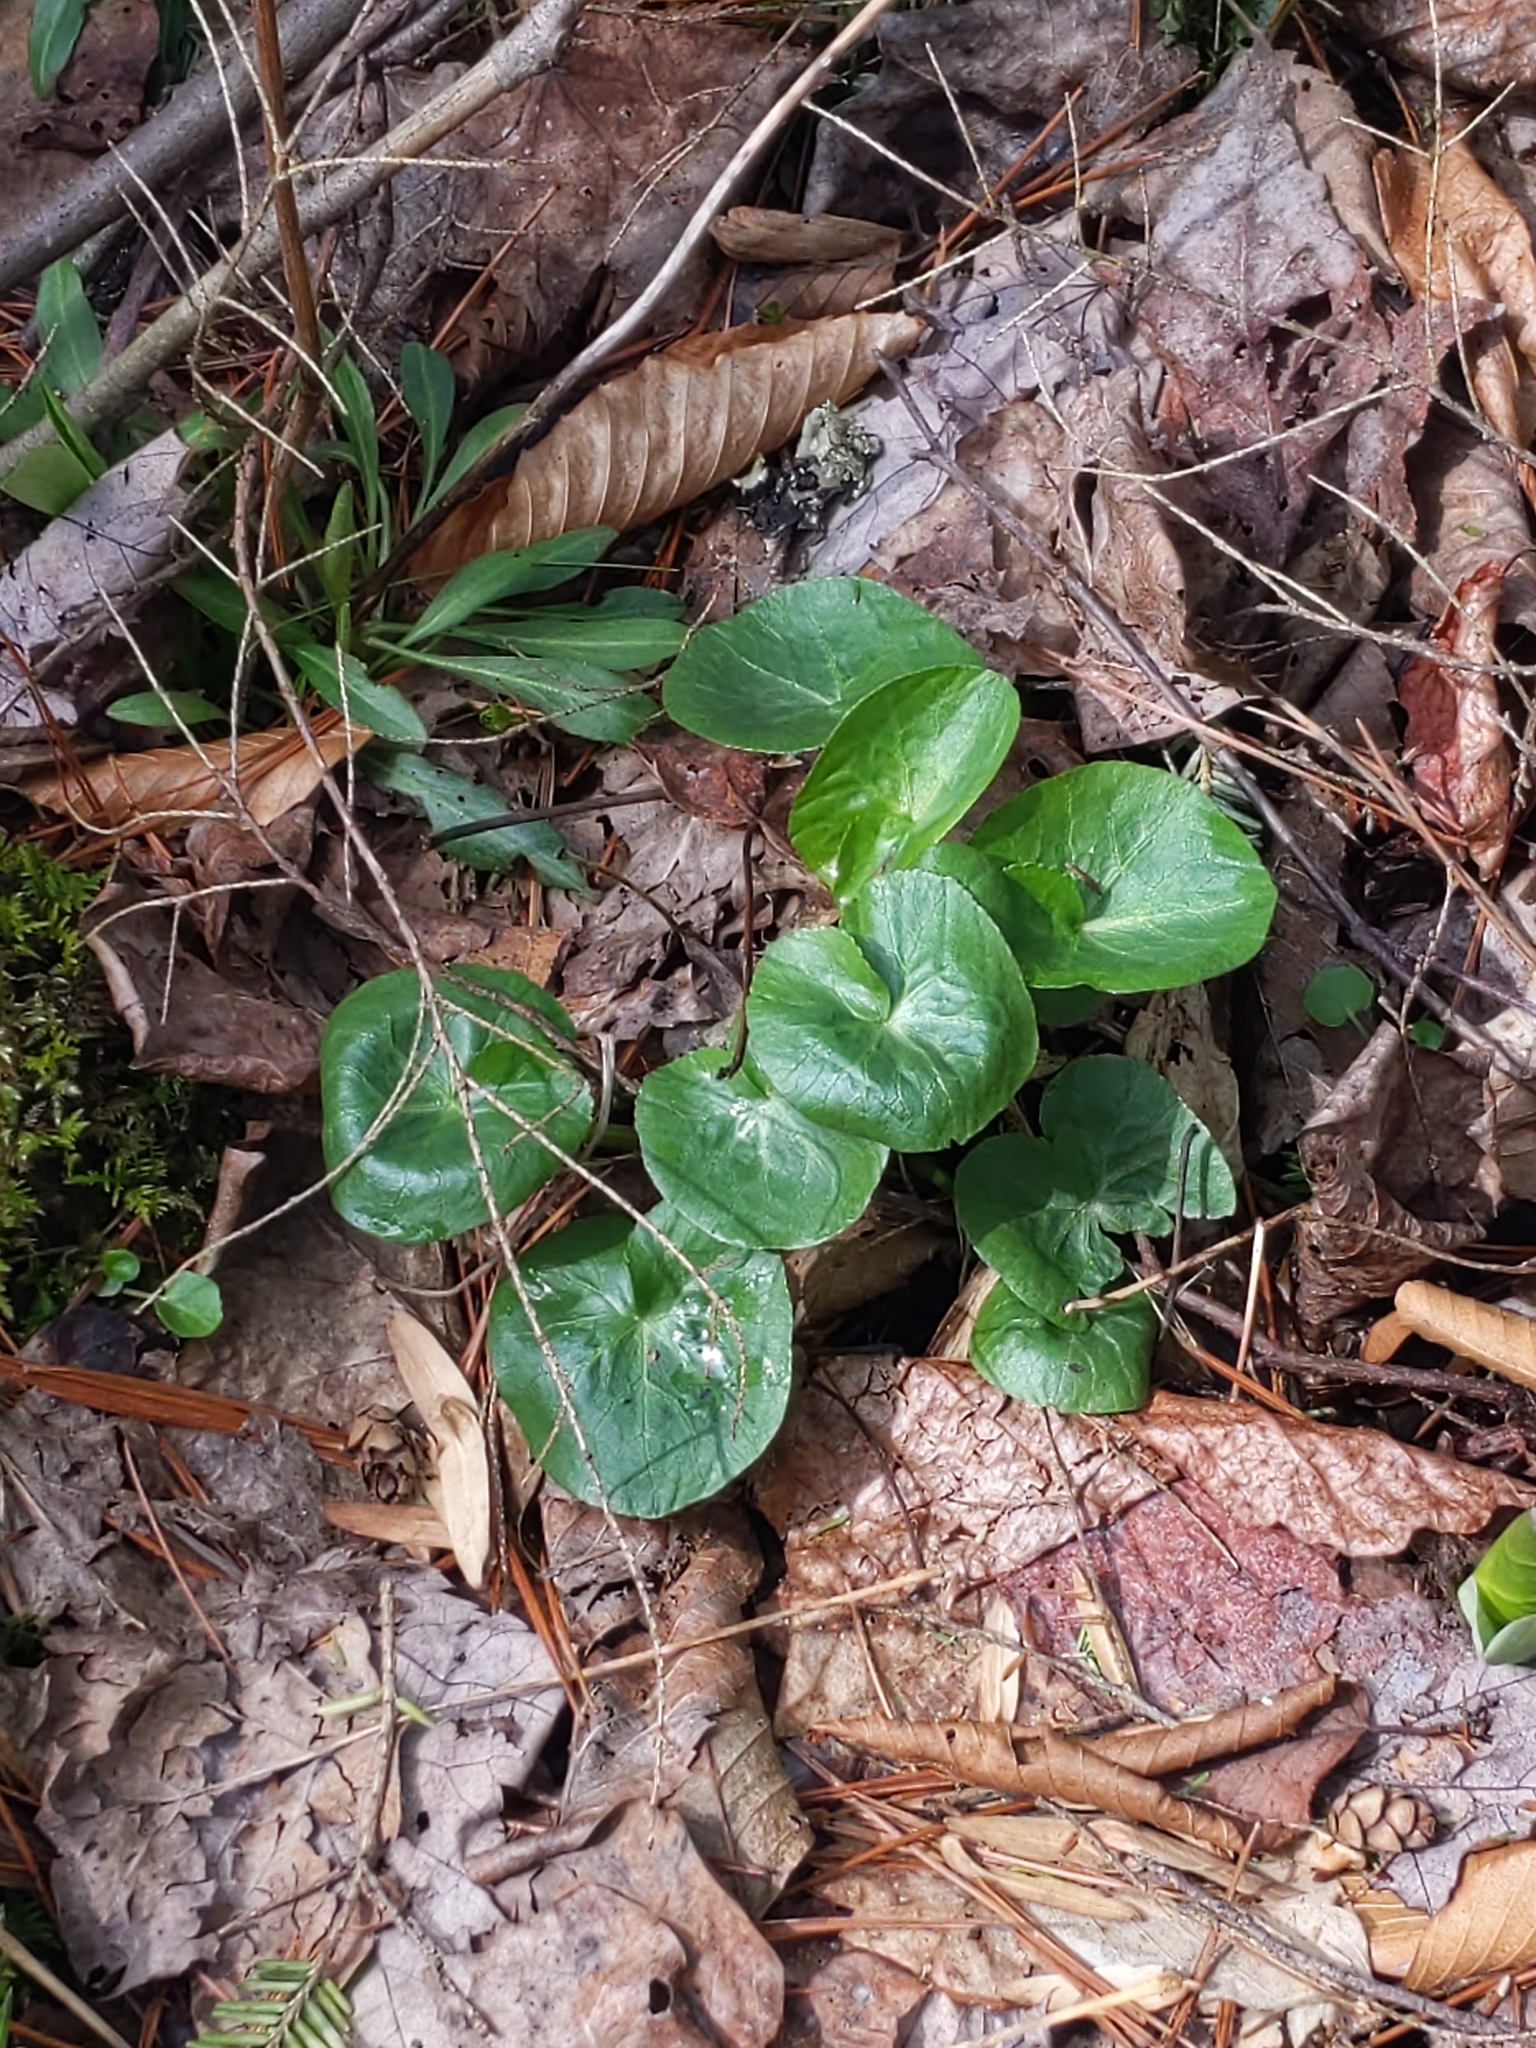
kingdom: Plantae
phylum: Tracheophyta
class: Magnoliopsida
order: Ranunculales
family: Ranunculaceae
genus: Caltha
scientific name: Caltha palustris
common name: Marsh marigold
